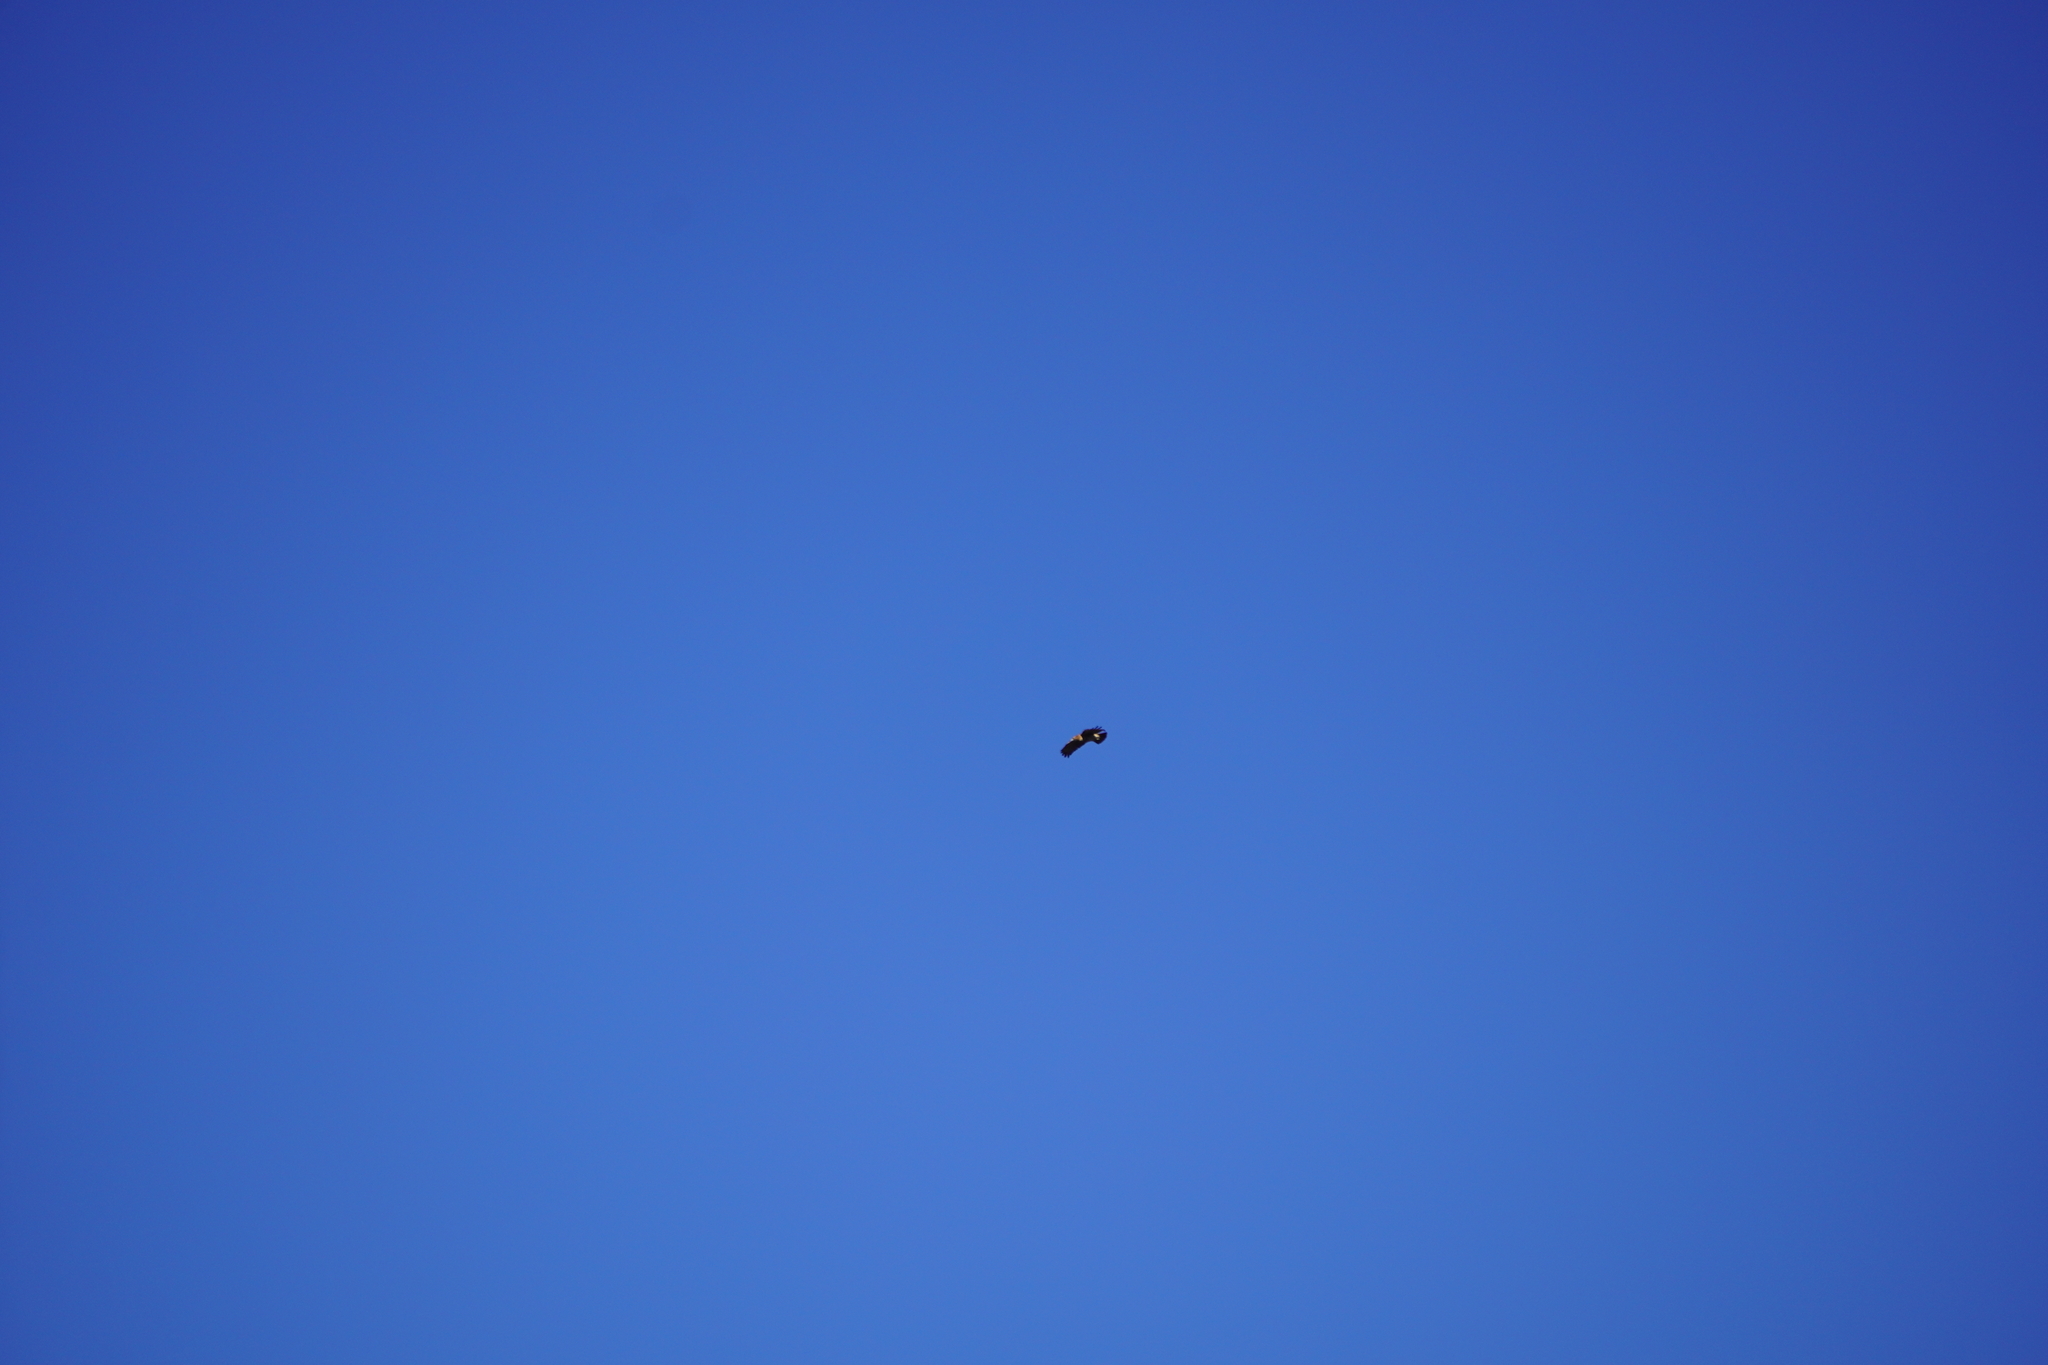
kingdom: Animalia
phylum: Chordata
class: Aves
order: Accipitriformes
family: Accipitridae
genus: Buteo
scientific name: Buteo jamaicensis
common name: Red-tailed hawk
